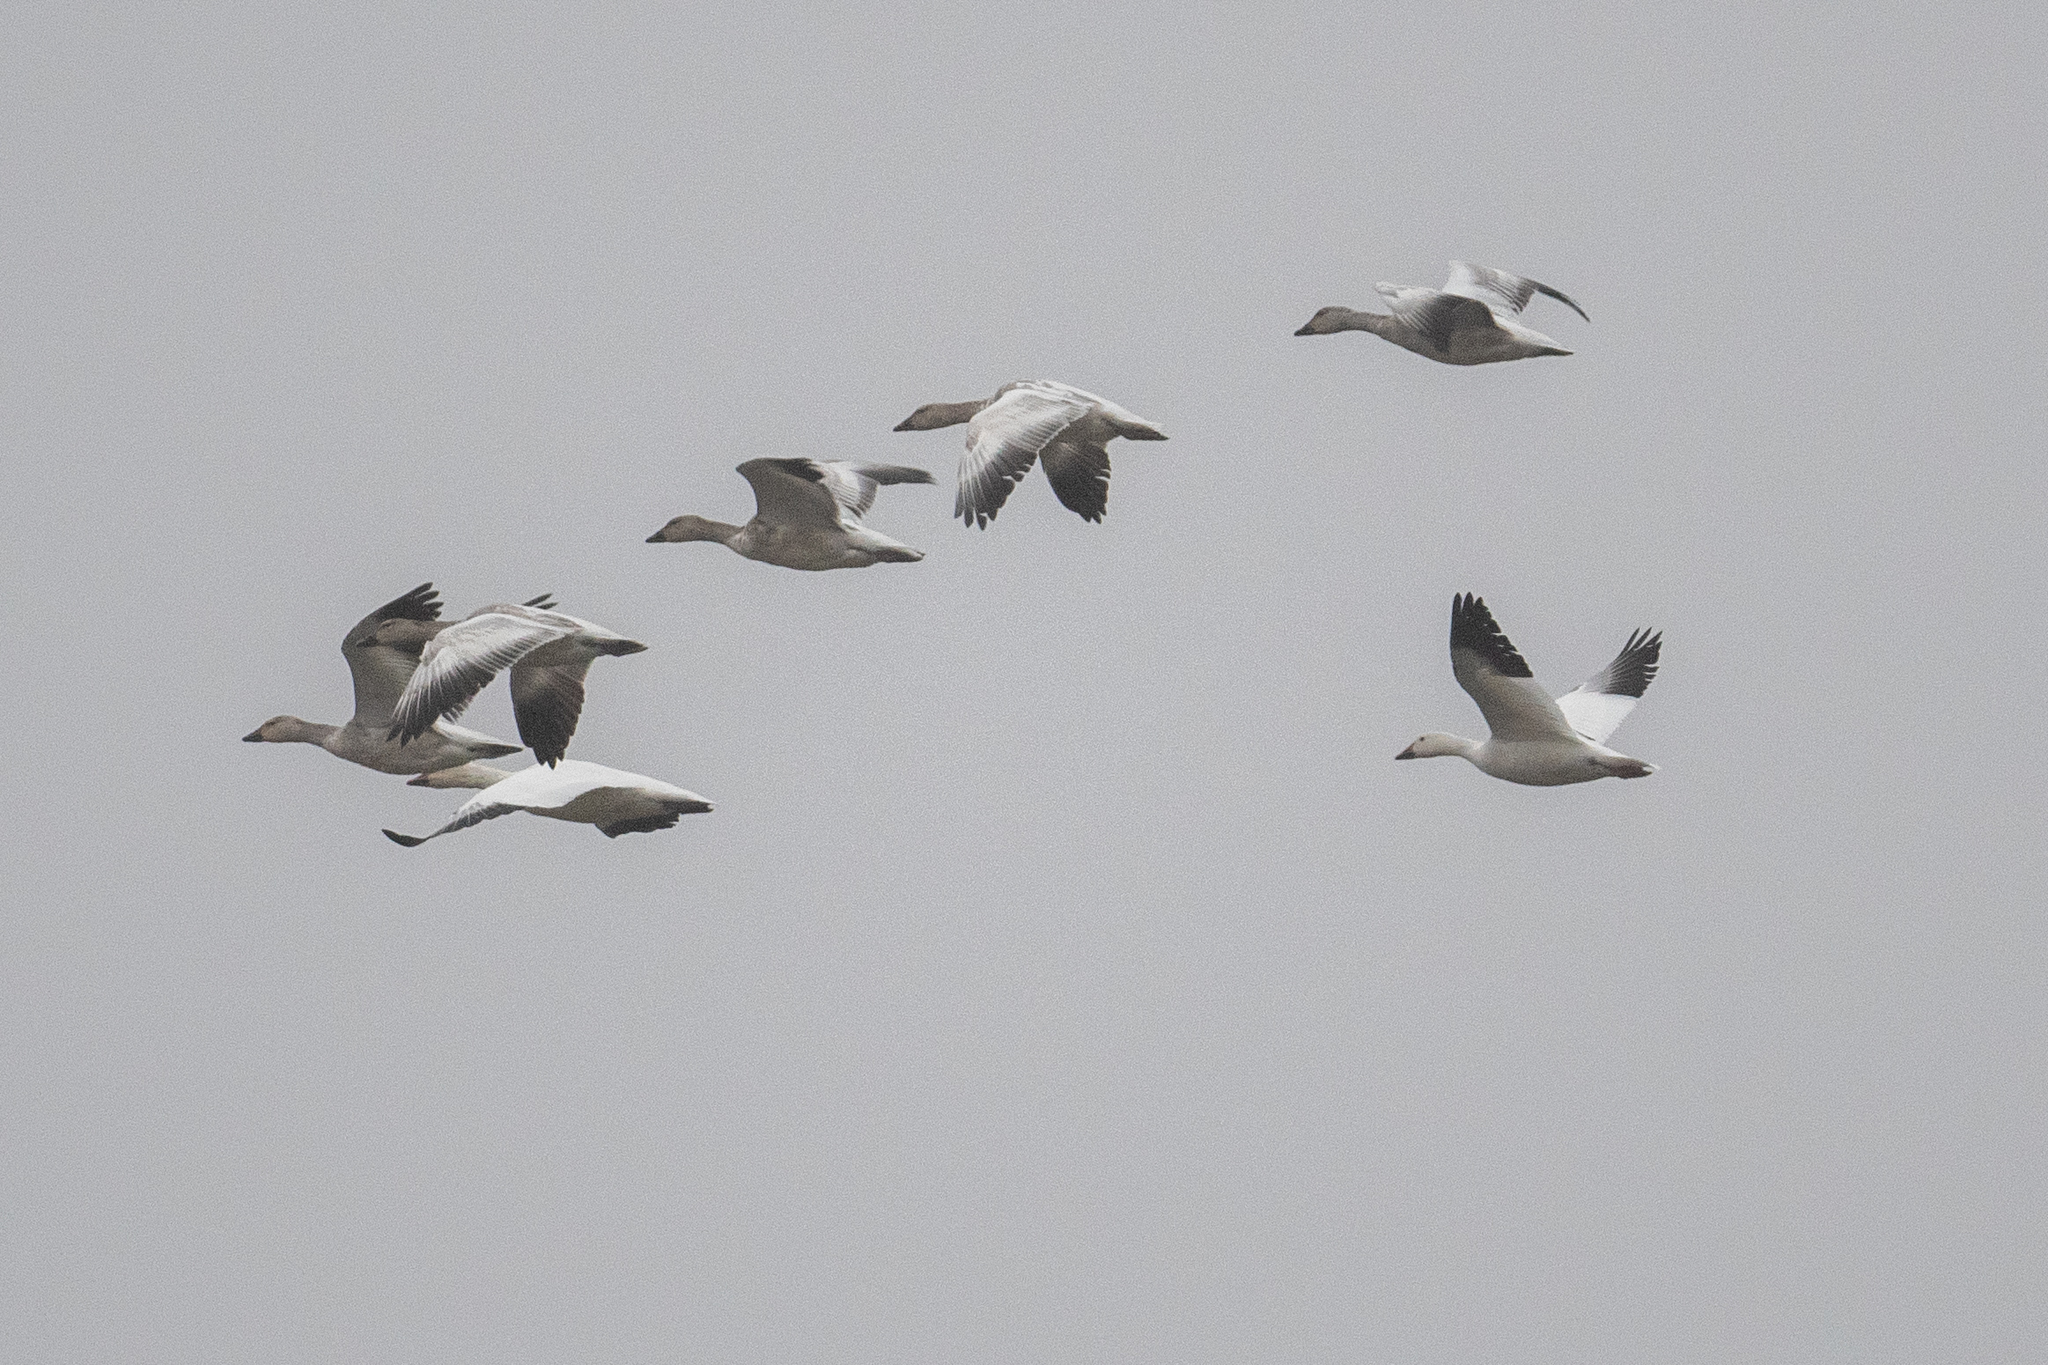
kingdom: Animalia
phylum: Chordata
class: Aves
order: Anseriformes
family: Anatidae
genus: Anser
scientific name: Anser caerulescens
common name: Snow goose
